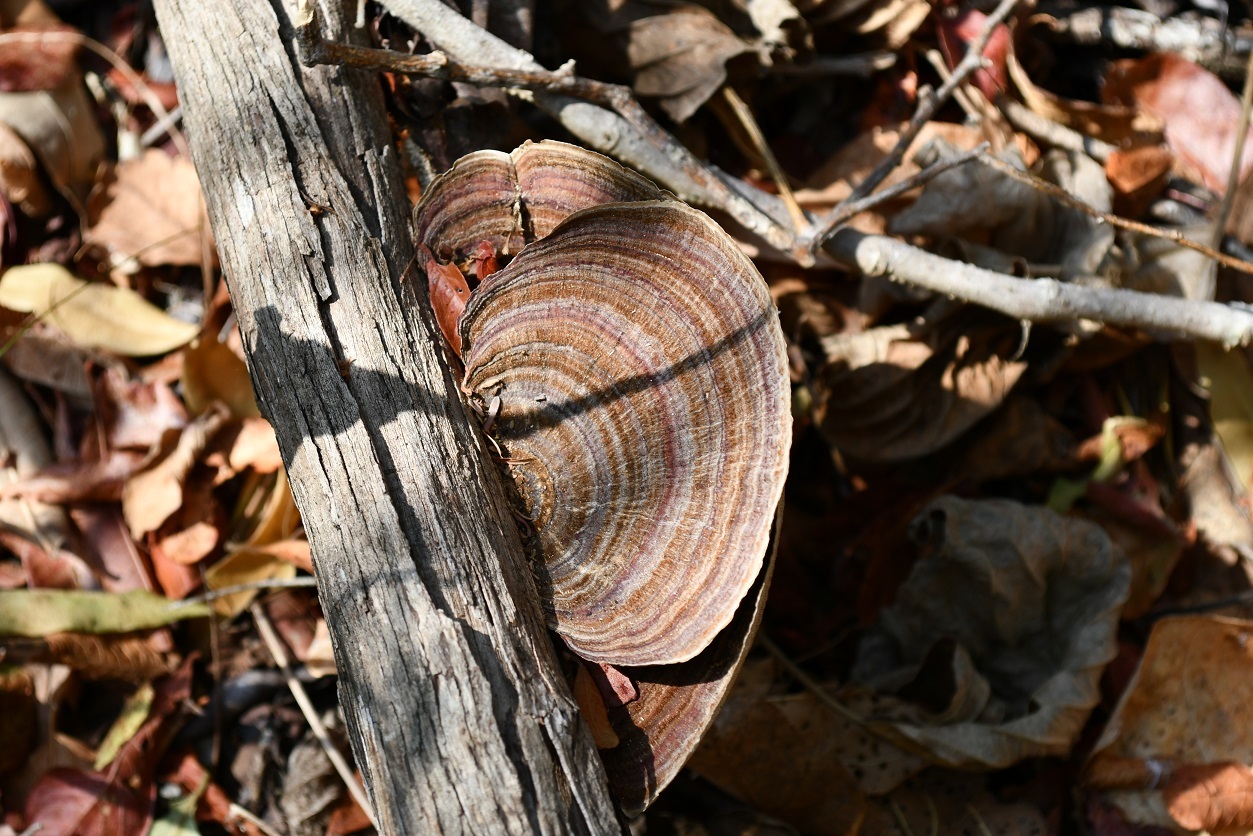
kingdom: Fungi
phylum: Basidiomycota
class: Agaricomycetes
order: Polyporales
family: Polyporaceae
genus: Trametes
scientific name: Trametes variegata
